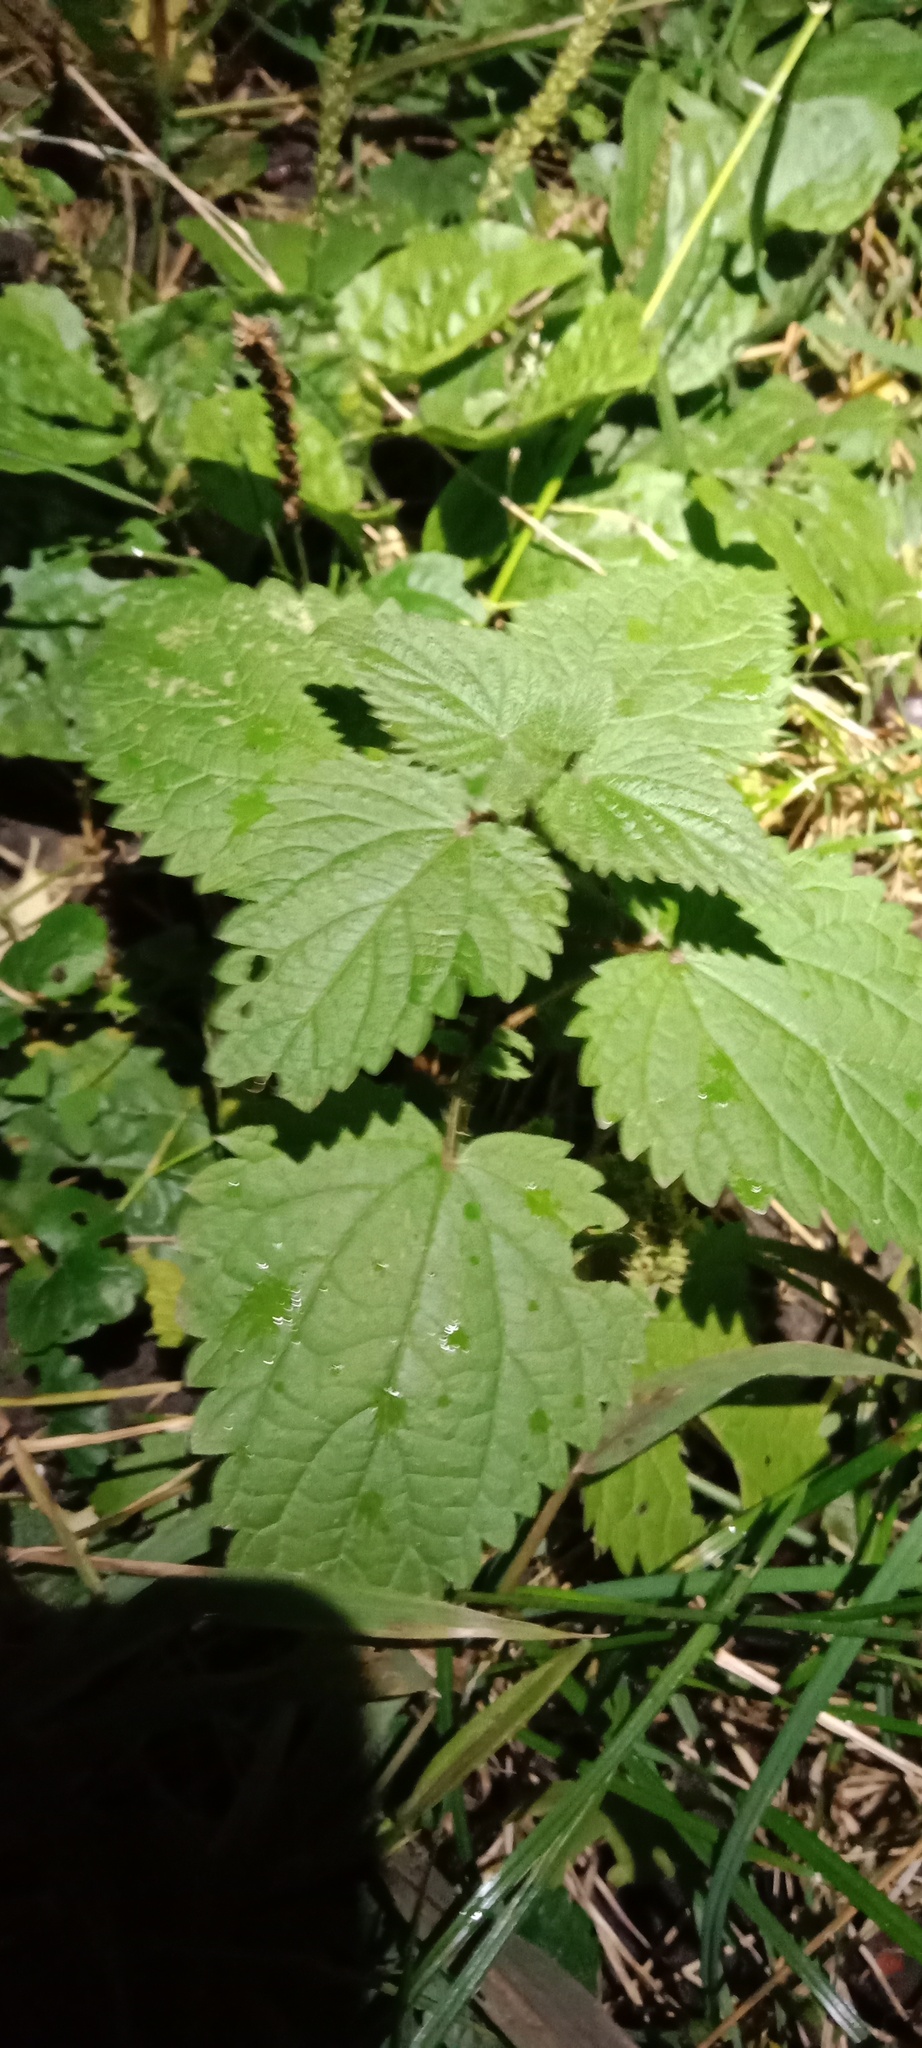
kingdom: Plantae
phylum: Tracheophyta
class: Magnoliopsida
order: Rosales
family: Urticaceae
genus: Urtica
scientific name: Urtica dioica
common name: Common nettle
